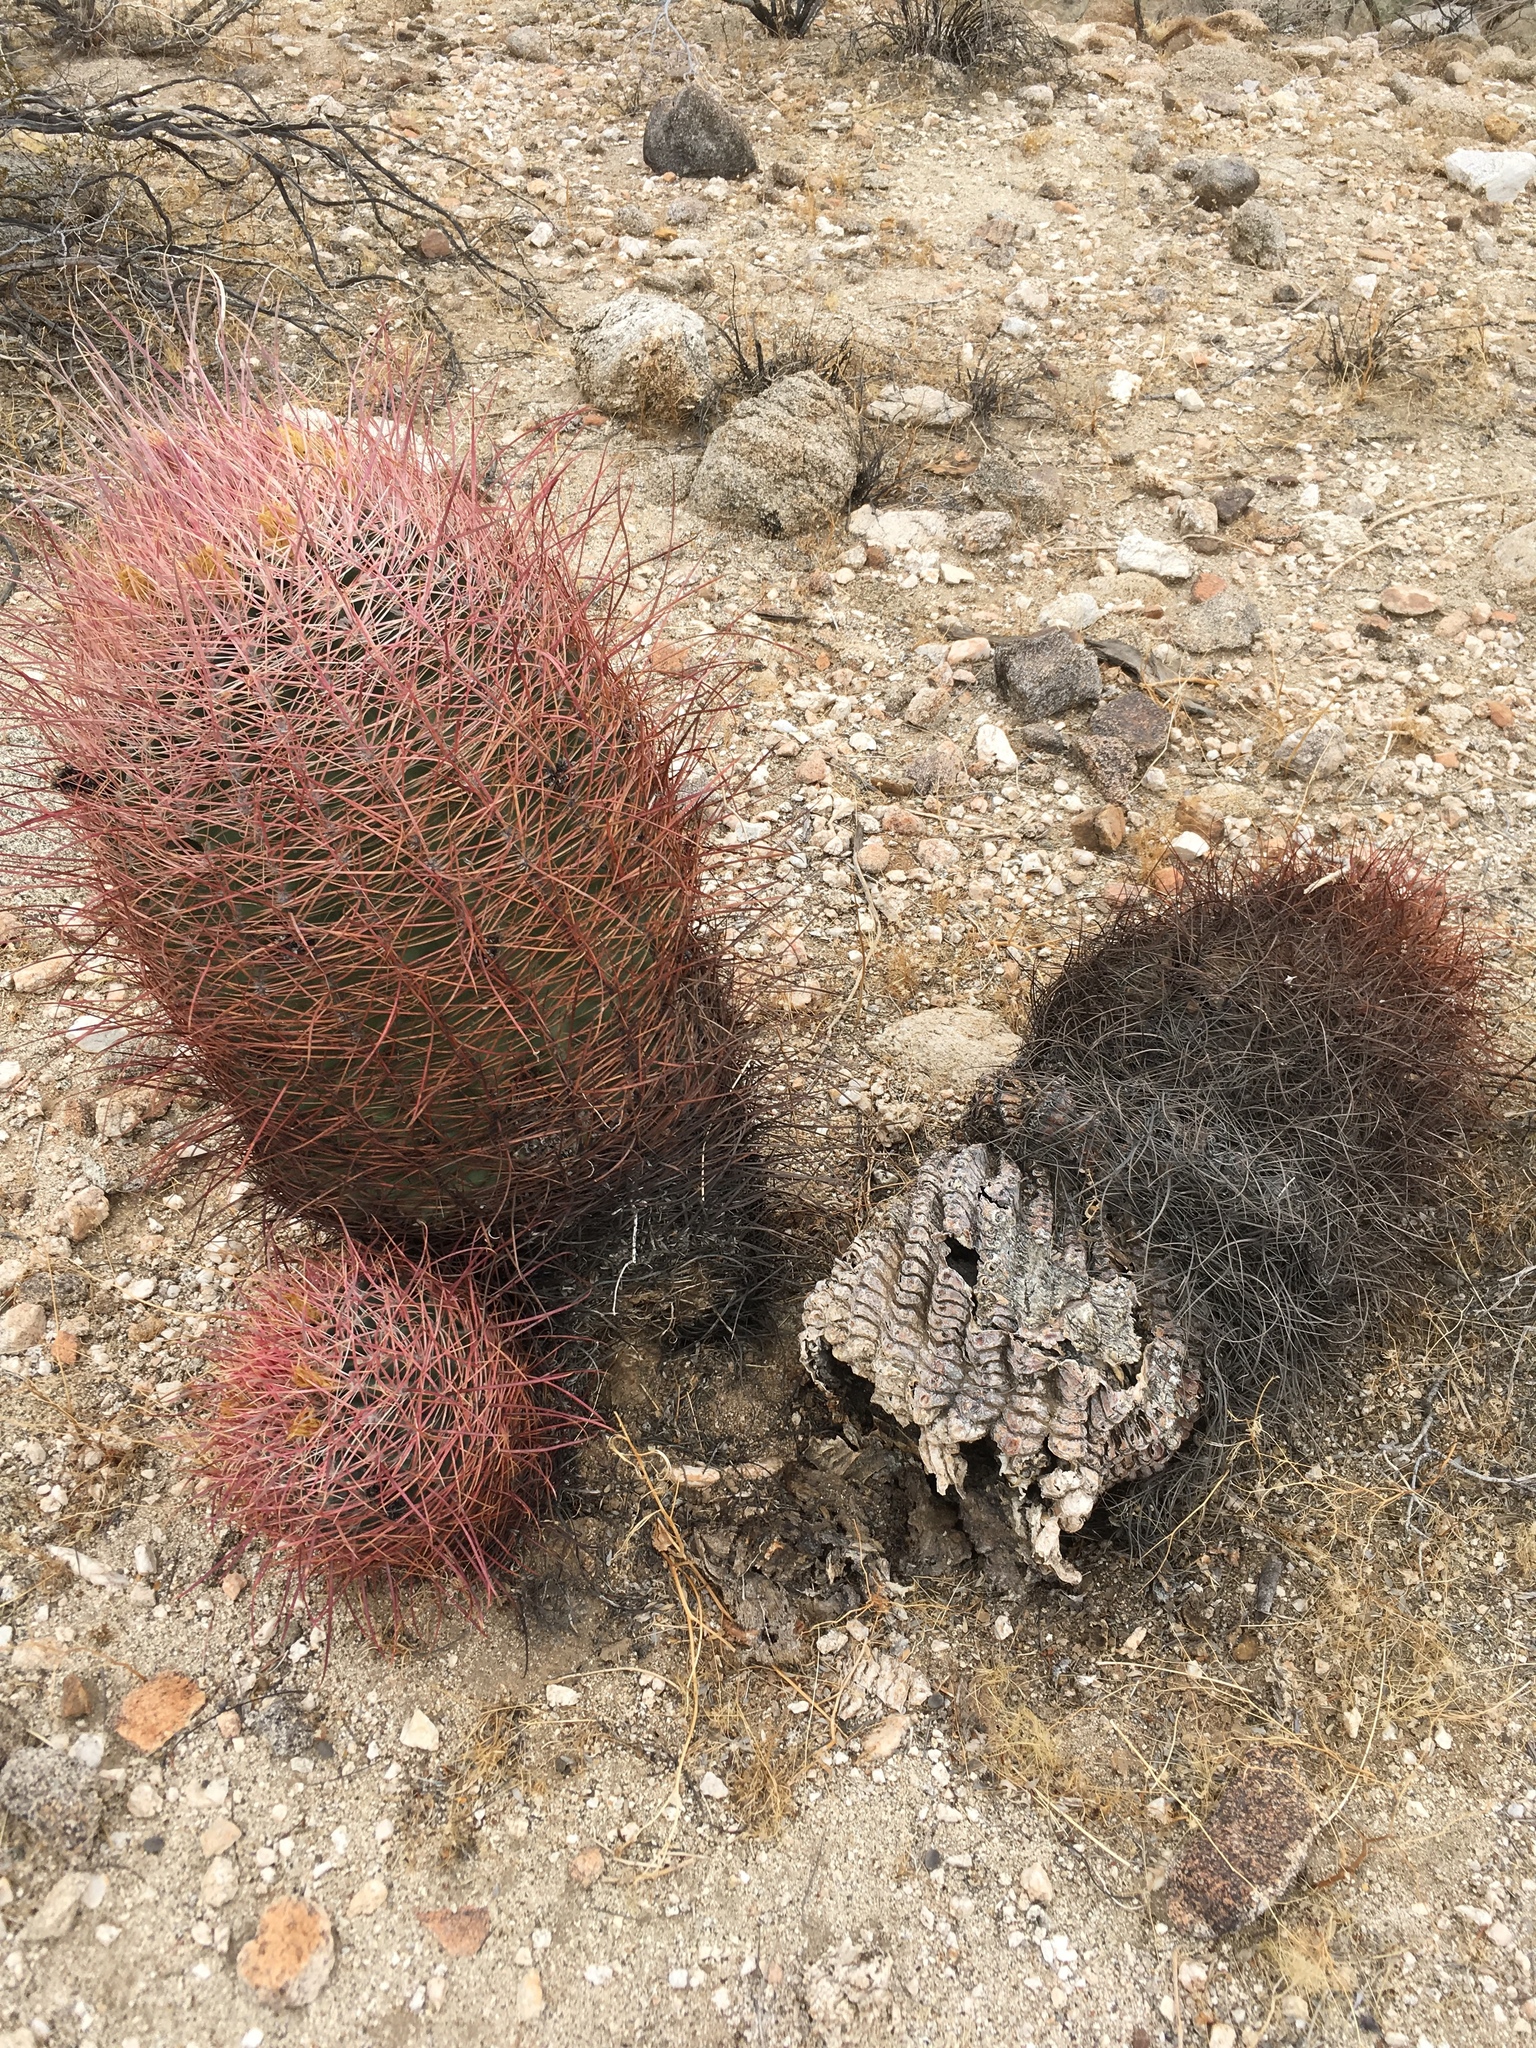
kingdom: Plantae
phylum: Tracheophyta
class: Magnoliopsida
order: Caryophyllales
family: Cactaceae
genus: Ferocactus
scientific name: Ferocactus cylindraceus
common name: California barrel cactus
